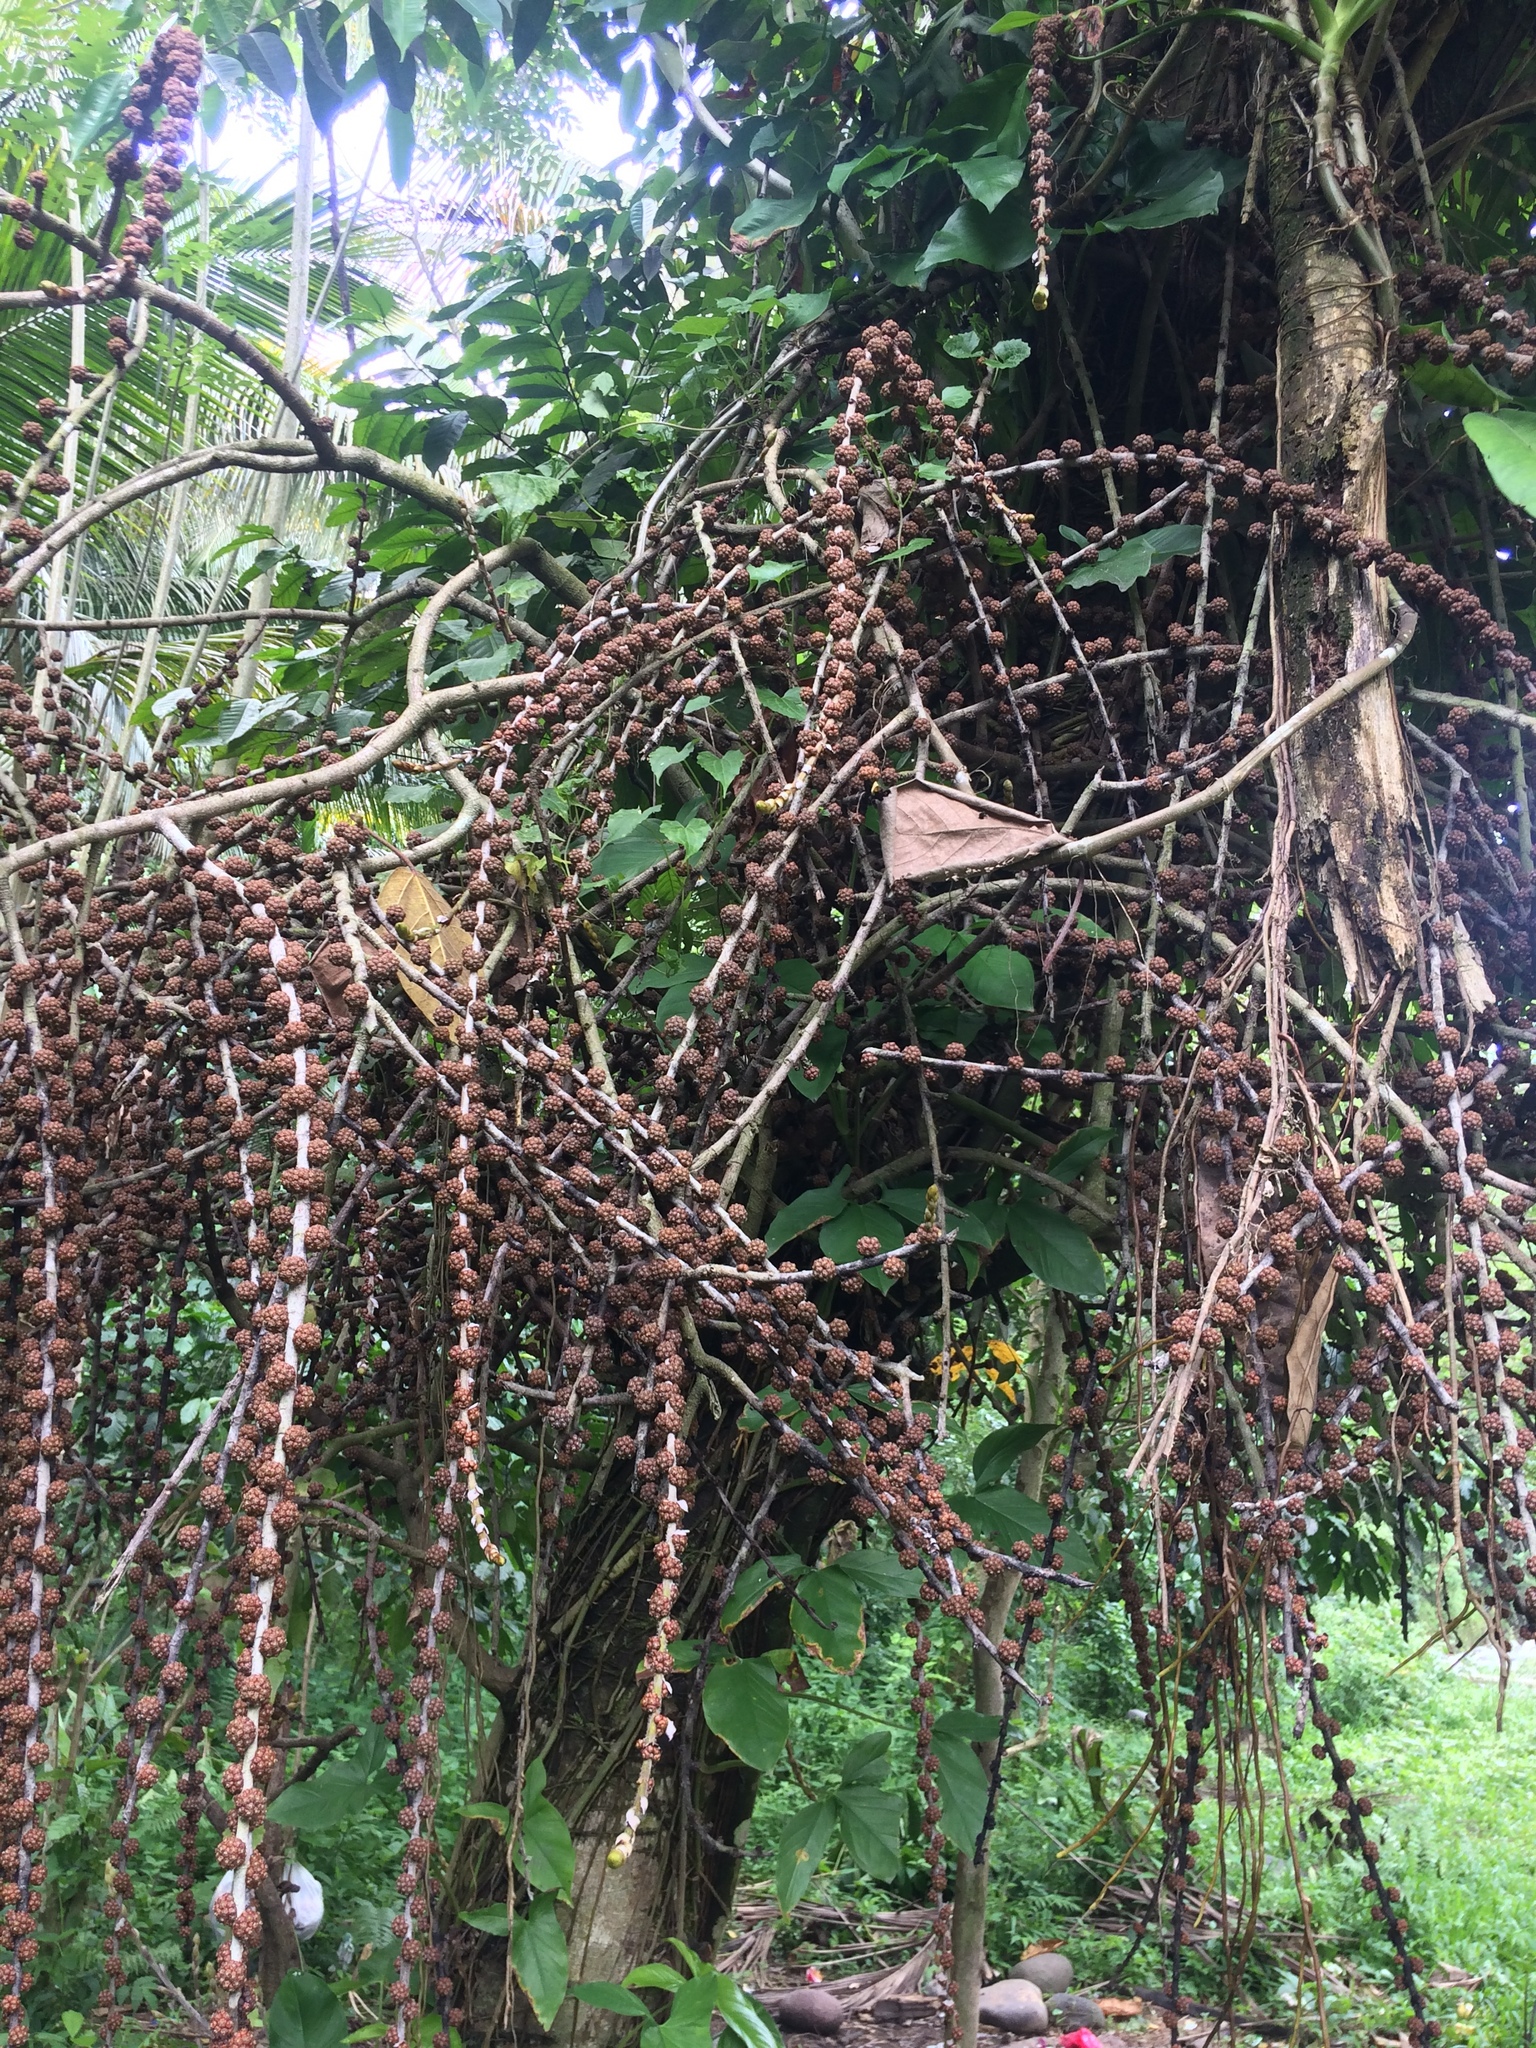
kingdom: Plantae
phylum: Tracheophyta
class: Magnoliopsida
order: Rosales
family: Moraceae
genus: Ficus
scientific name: Ficus minahassae
